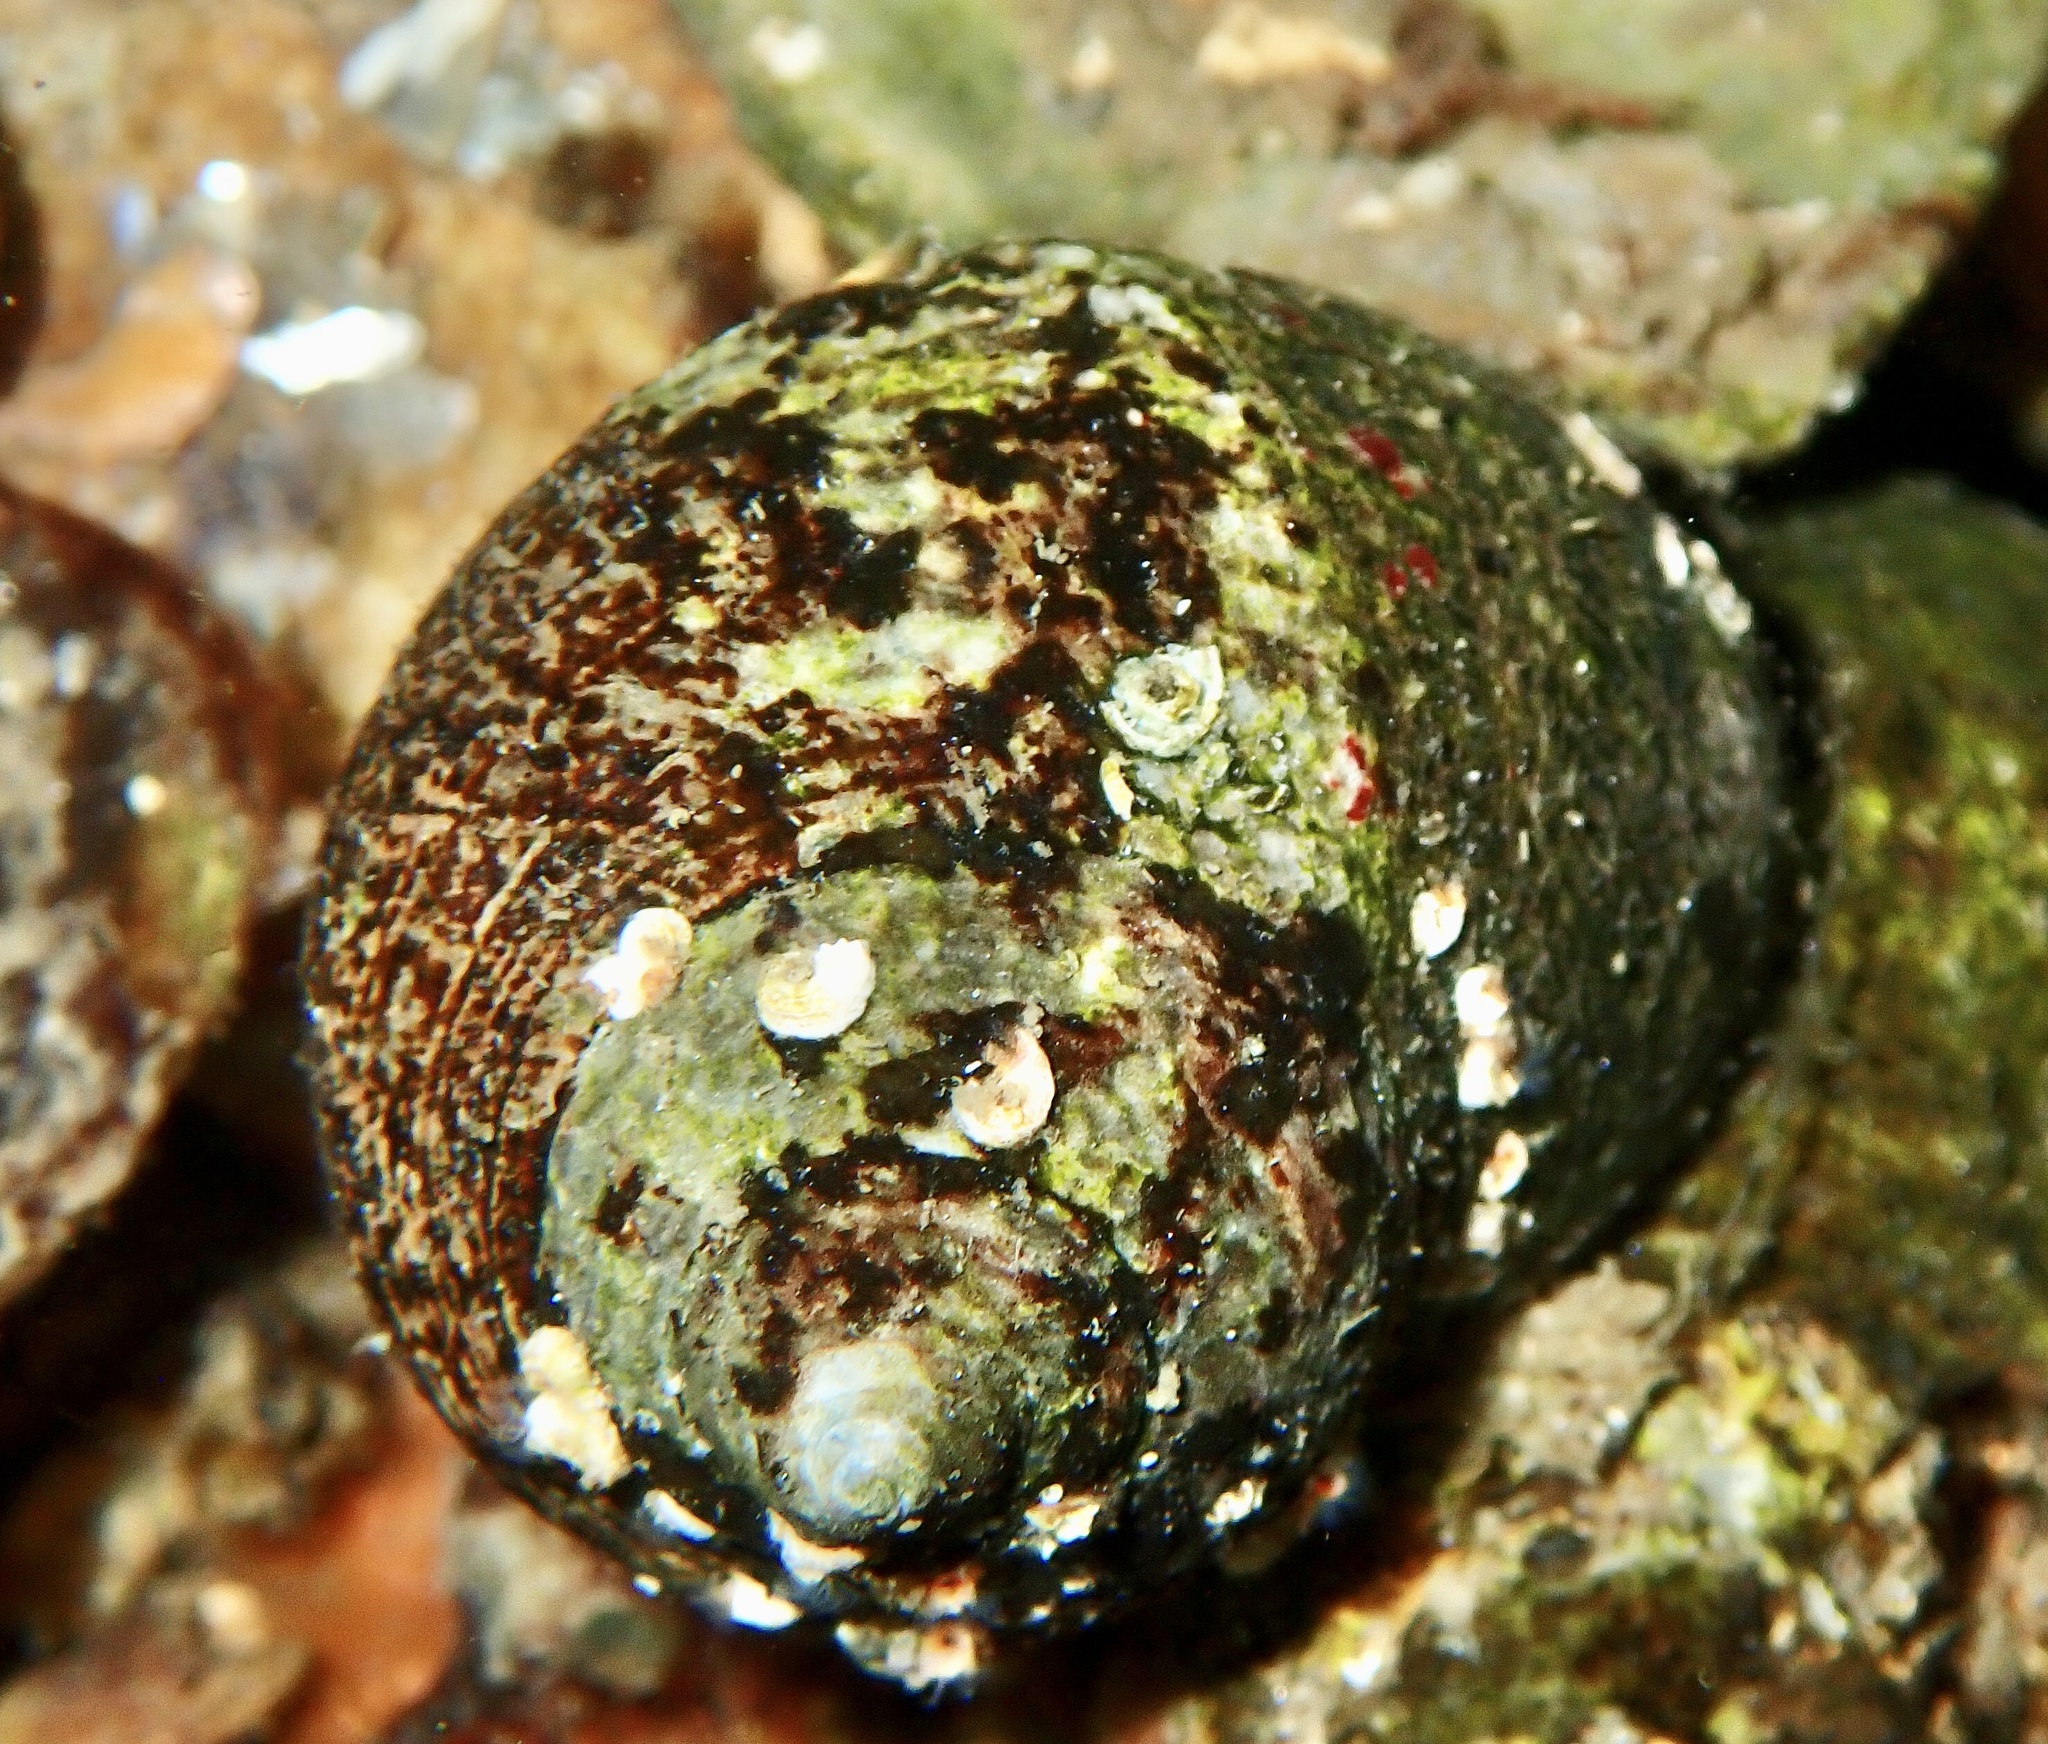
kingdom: Animalia
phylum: Mollusca
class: Gastropoda
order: Littorinimorpha
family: Littorinidae
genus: Littorina
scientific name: Littorina littorea
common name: Common periwinkle
